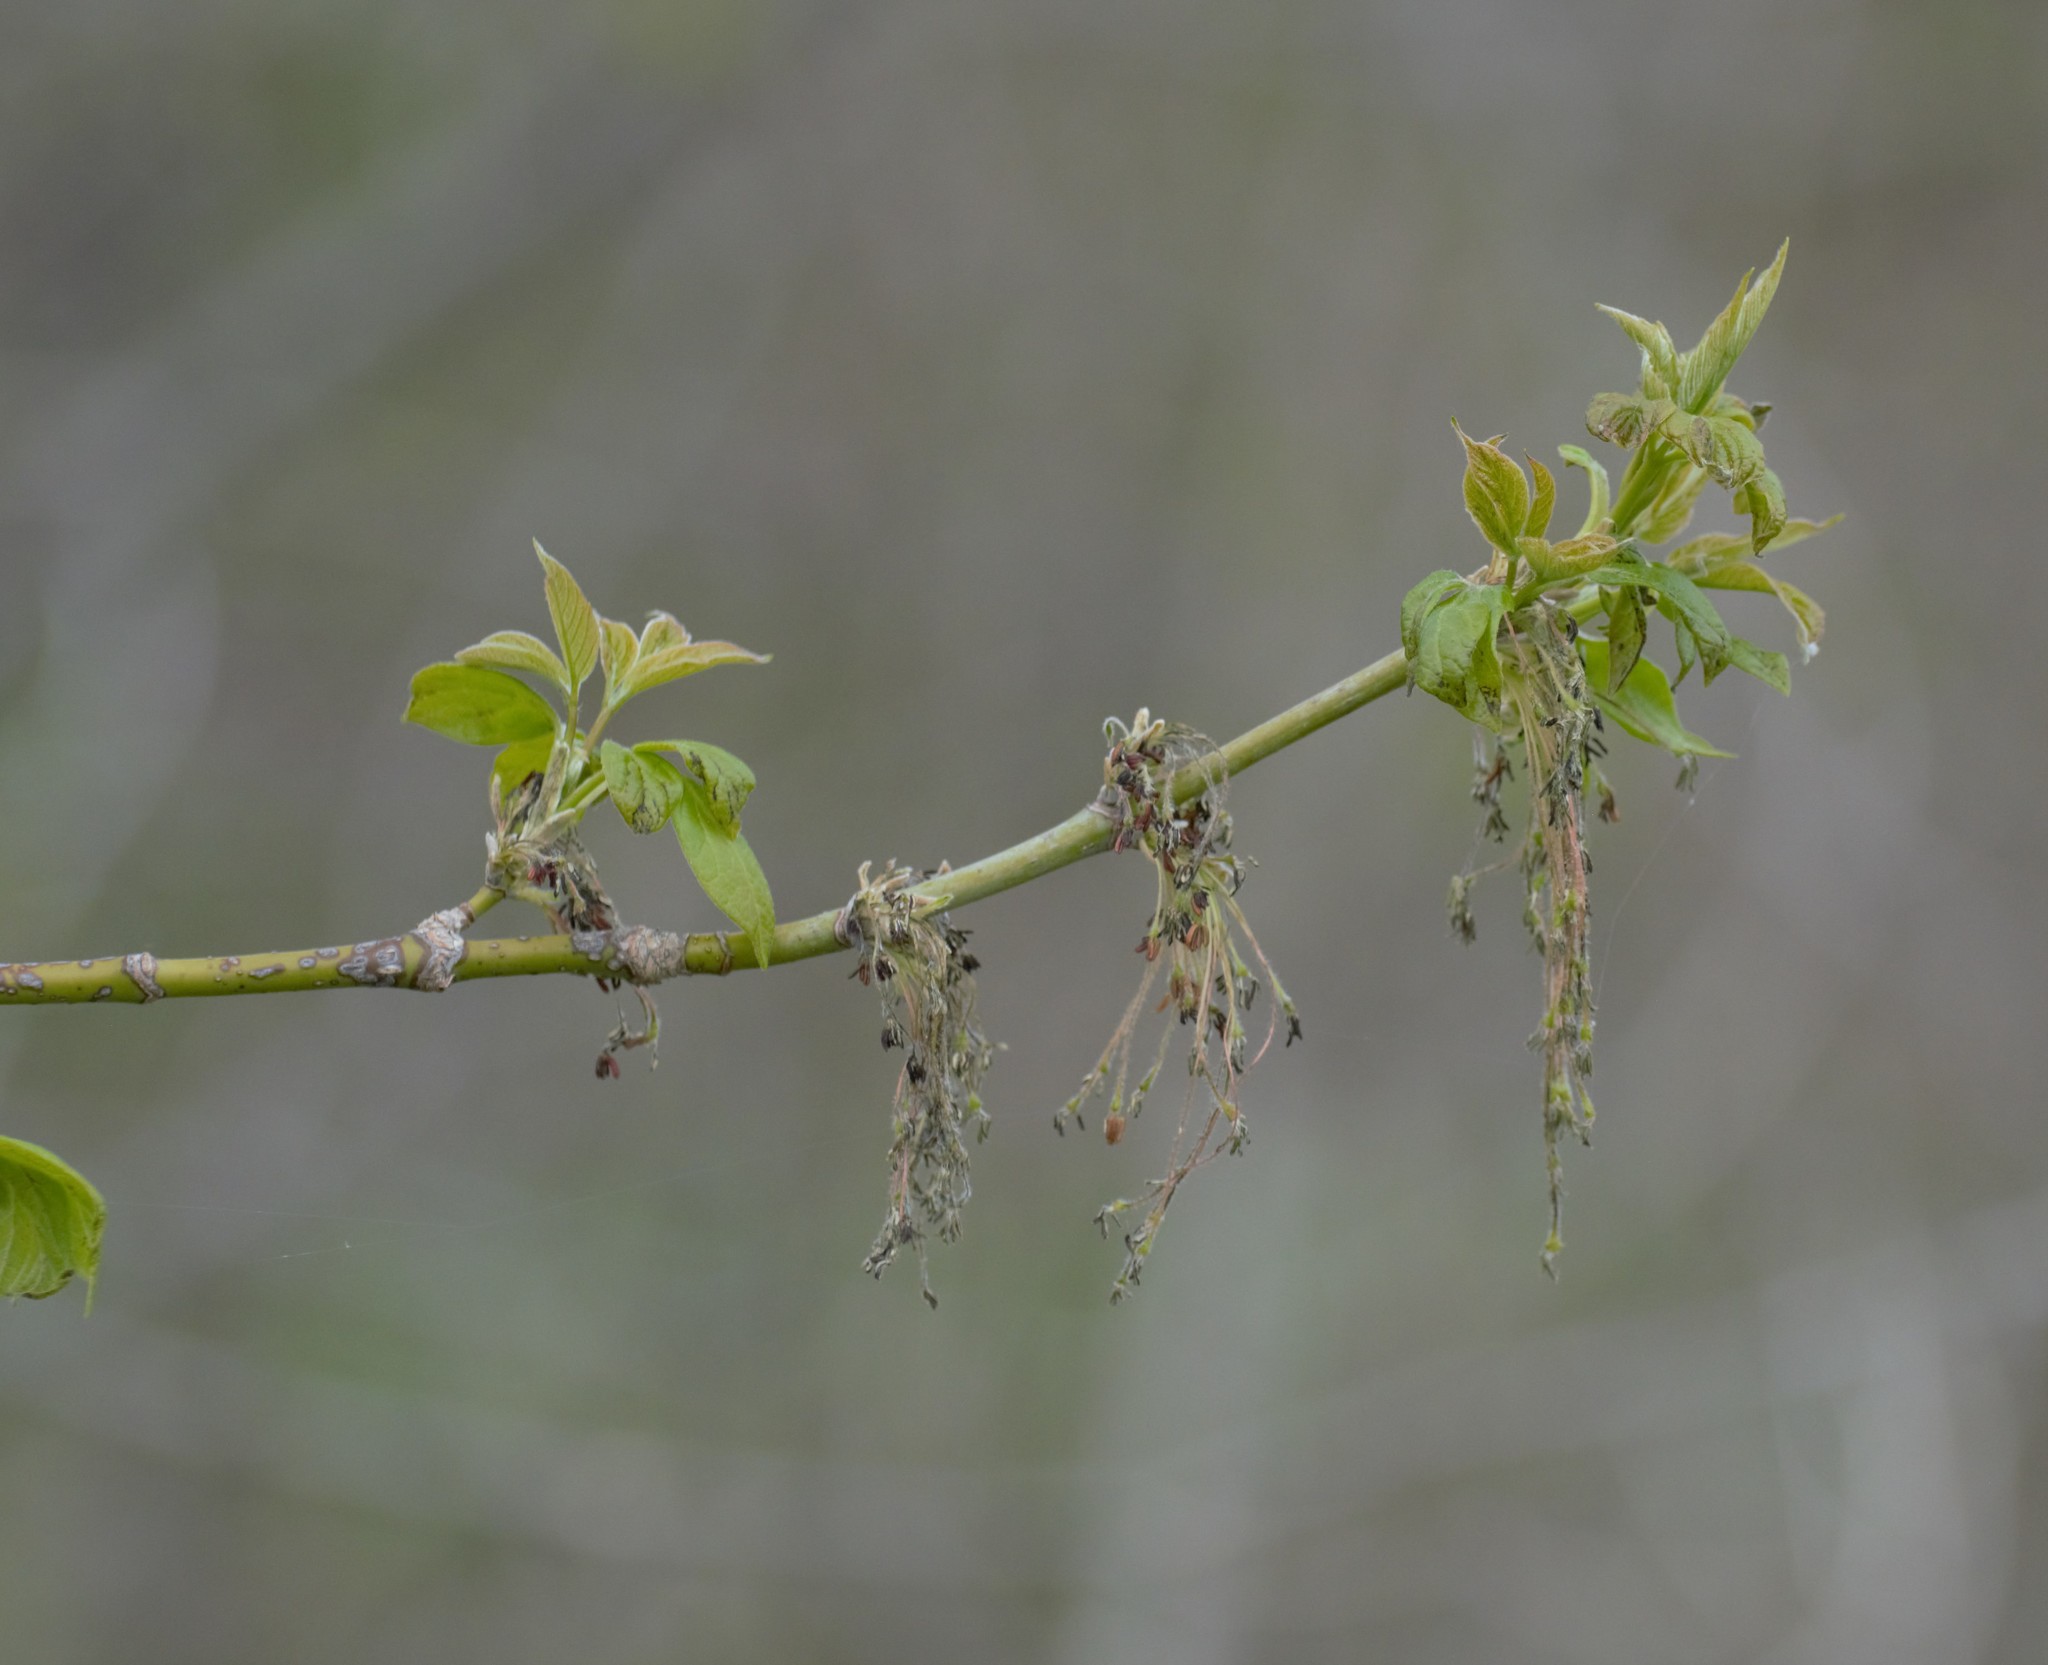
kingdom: Plantae
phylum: Tracheophyta
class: Magnoliopsida
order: Sapindales
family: Sapindaceae
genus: Acer
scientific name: Acer negundo
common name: Ashleaf maple
